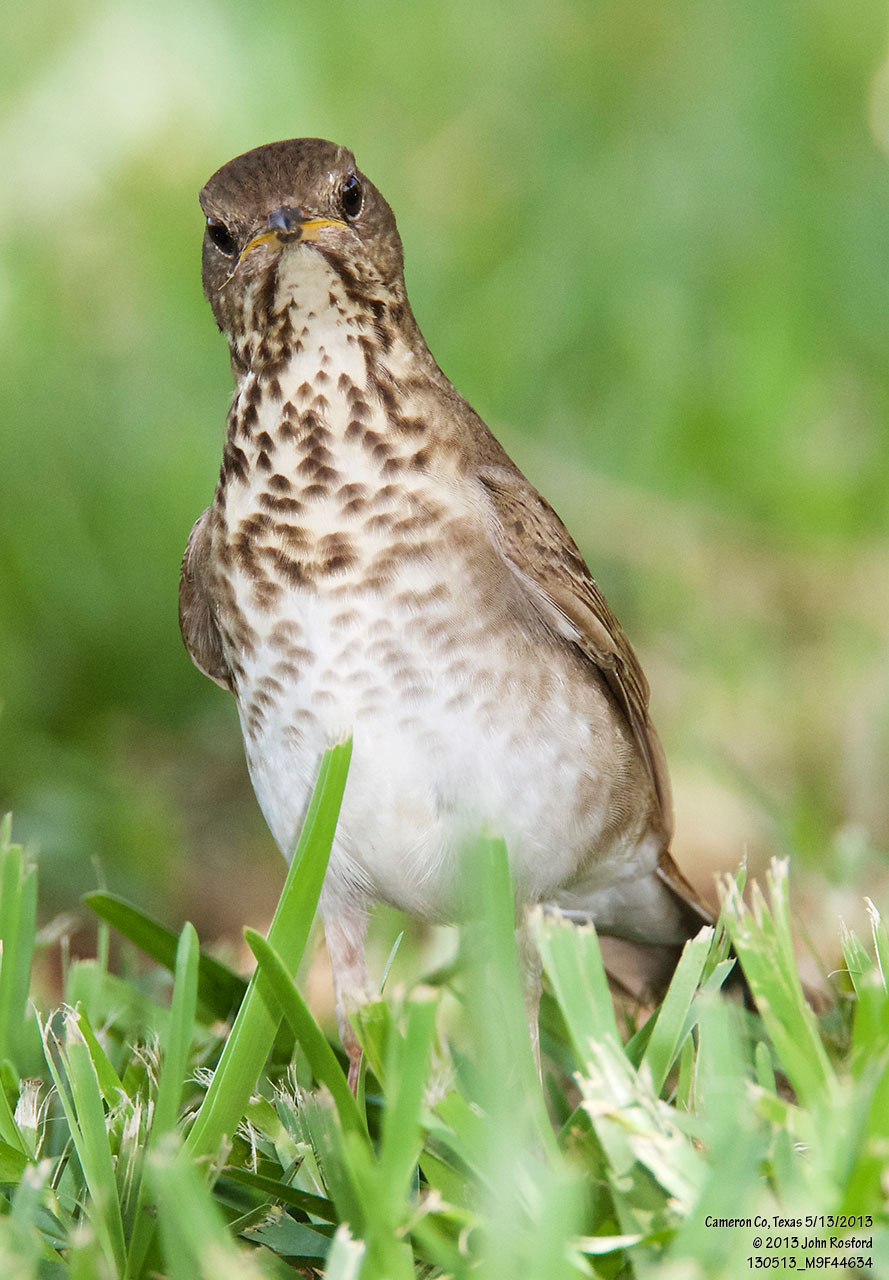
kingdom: Animalia
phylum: Chordata
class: Aves
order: Passeriformes
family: Turdidae
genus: Catharus
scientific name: Catharus minimus
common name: Grey-cheeked thrush
